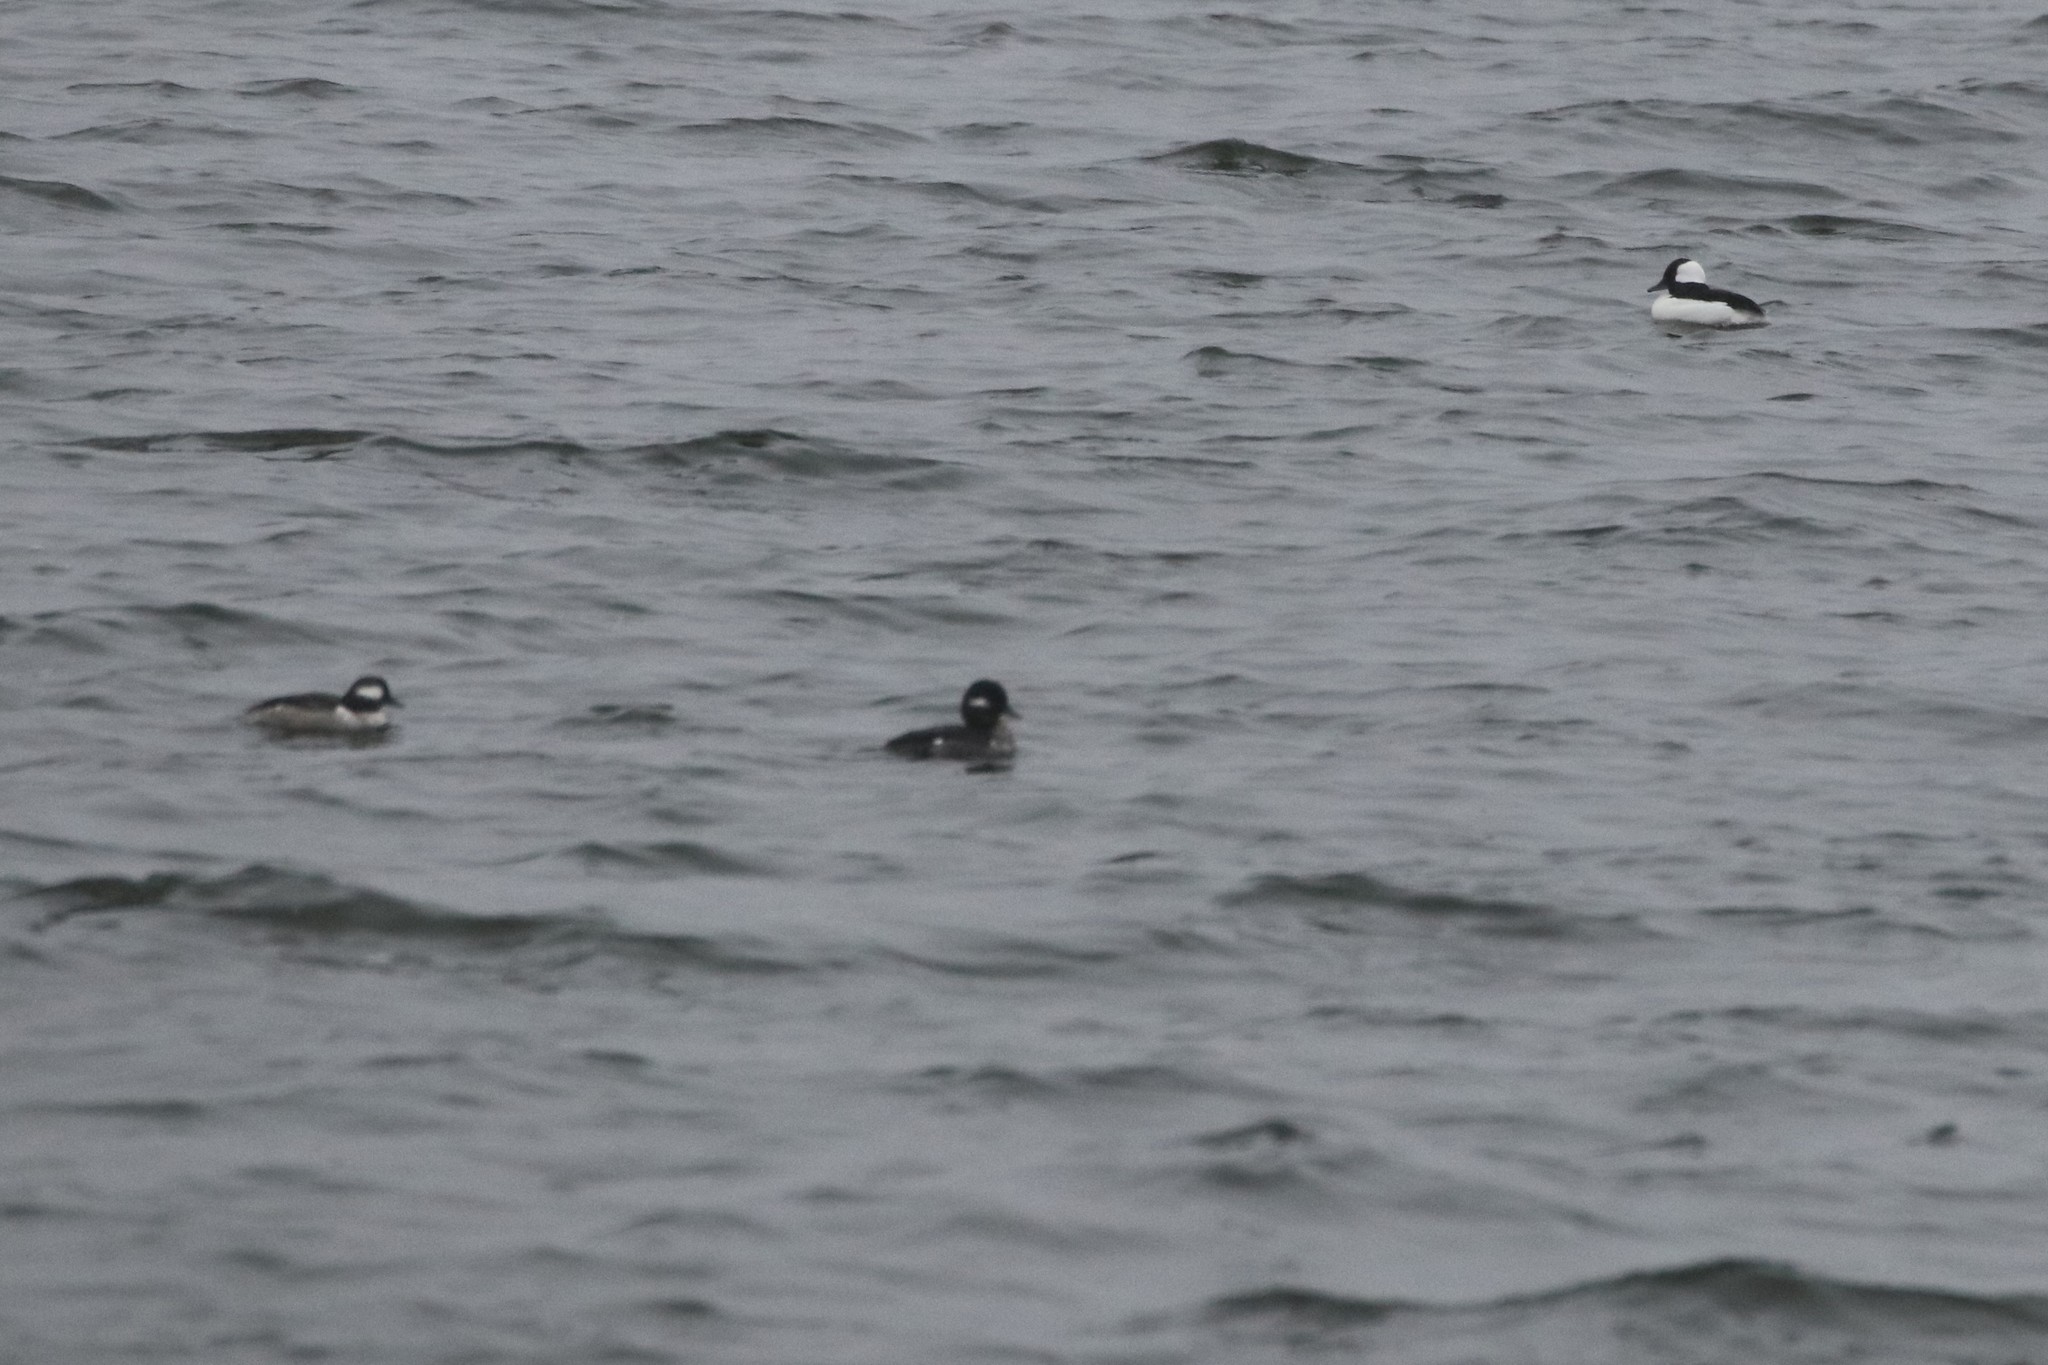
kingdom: Animalia
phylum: Chordata
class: Aves
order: Anseriformes
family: Anatidae
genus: Bucephala
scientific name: Bucephala albeola
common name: Bufflehead
